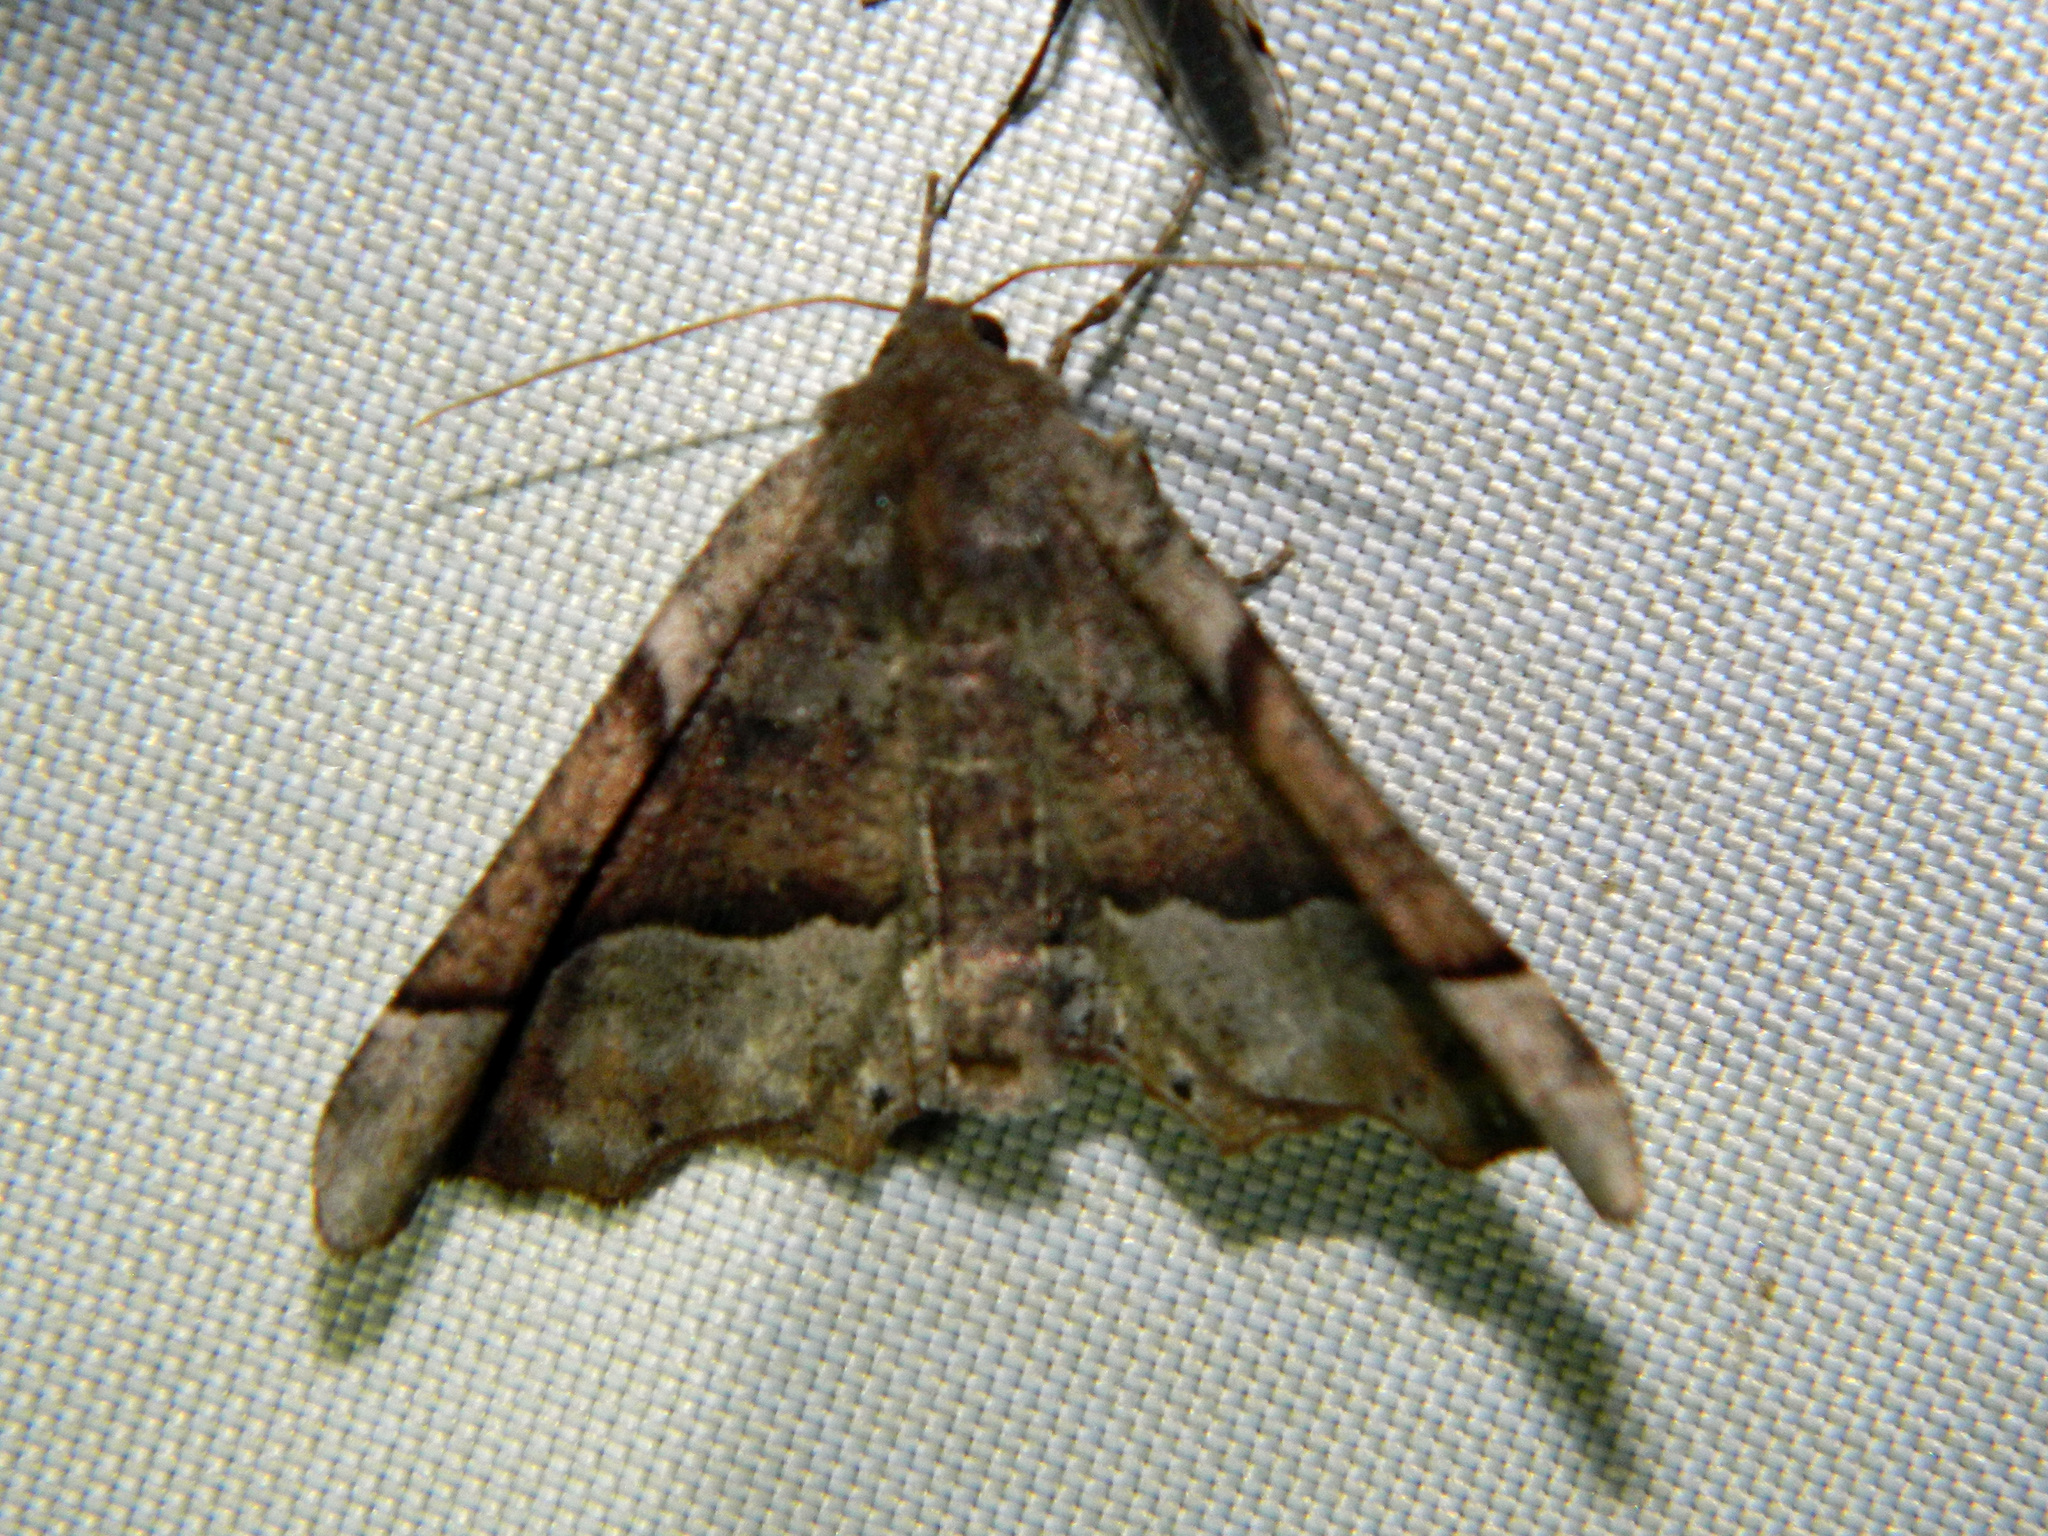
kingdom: Animalia
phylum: Arthropoda
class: Insecta
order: Lepidoptera
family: Geometridae
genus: Pero
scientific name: Pero morrisonaria
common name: Morrison's pero
